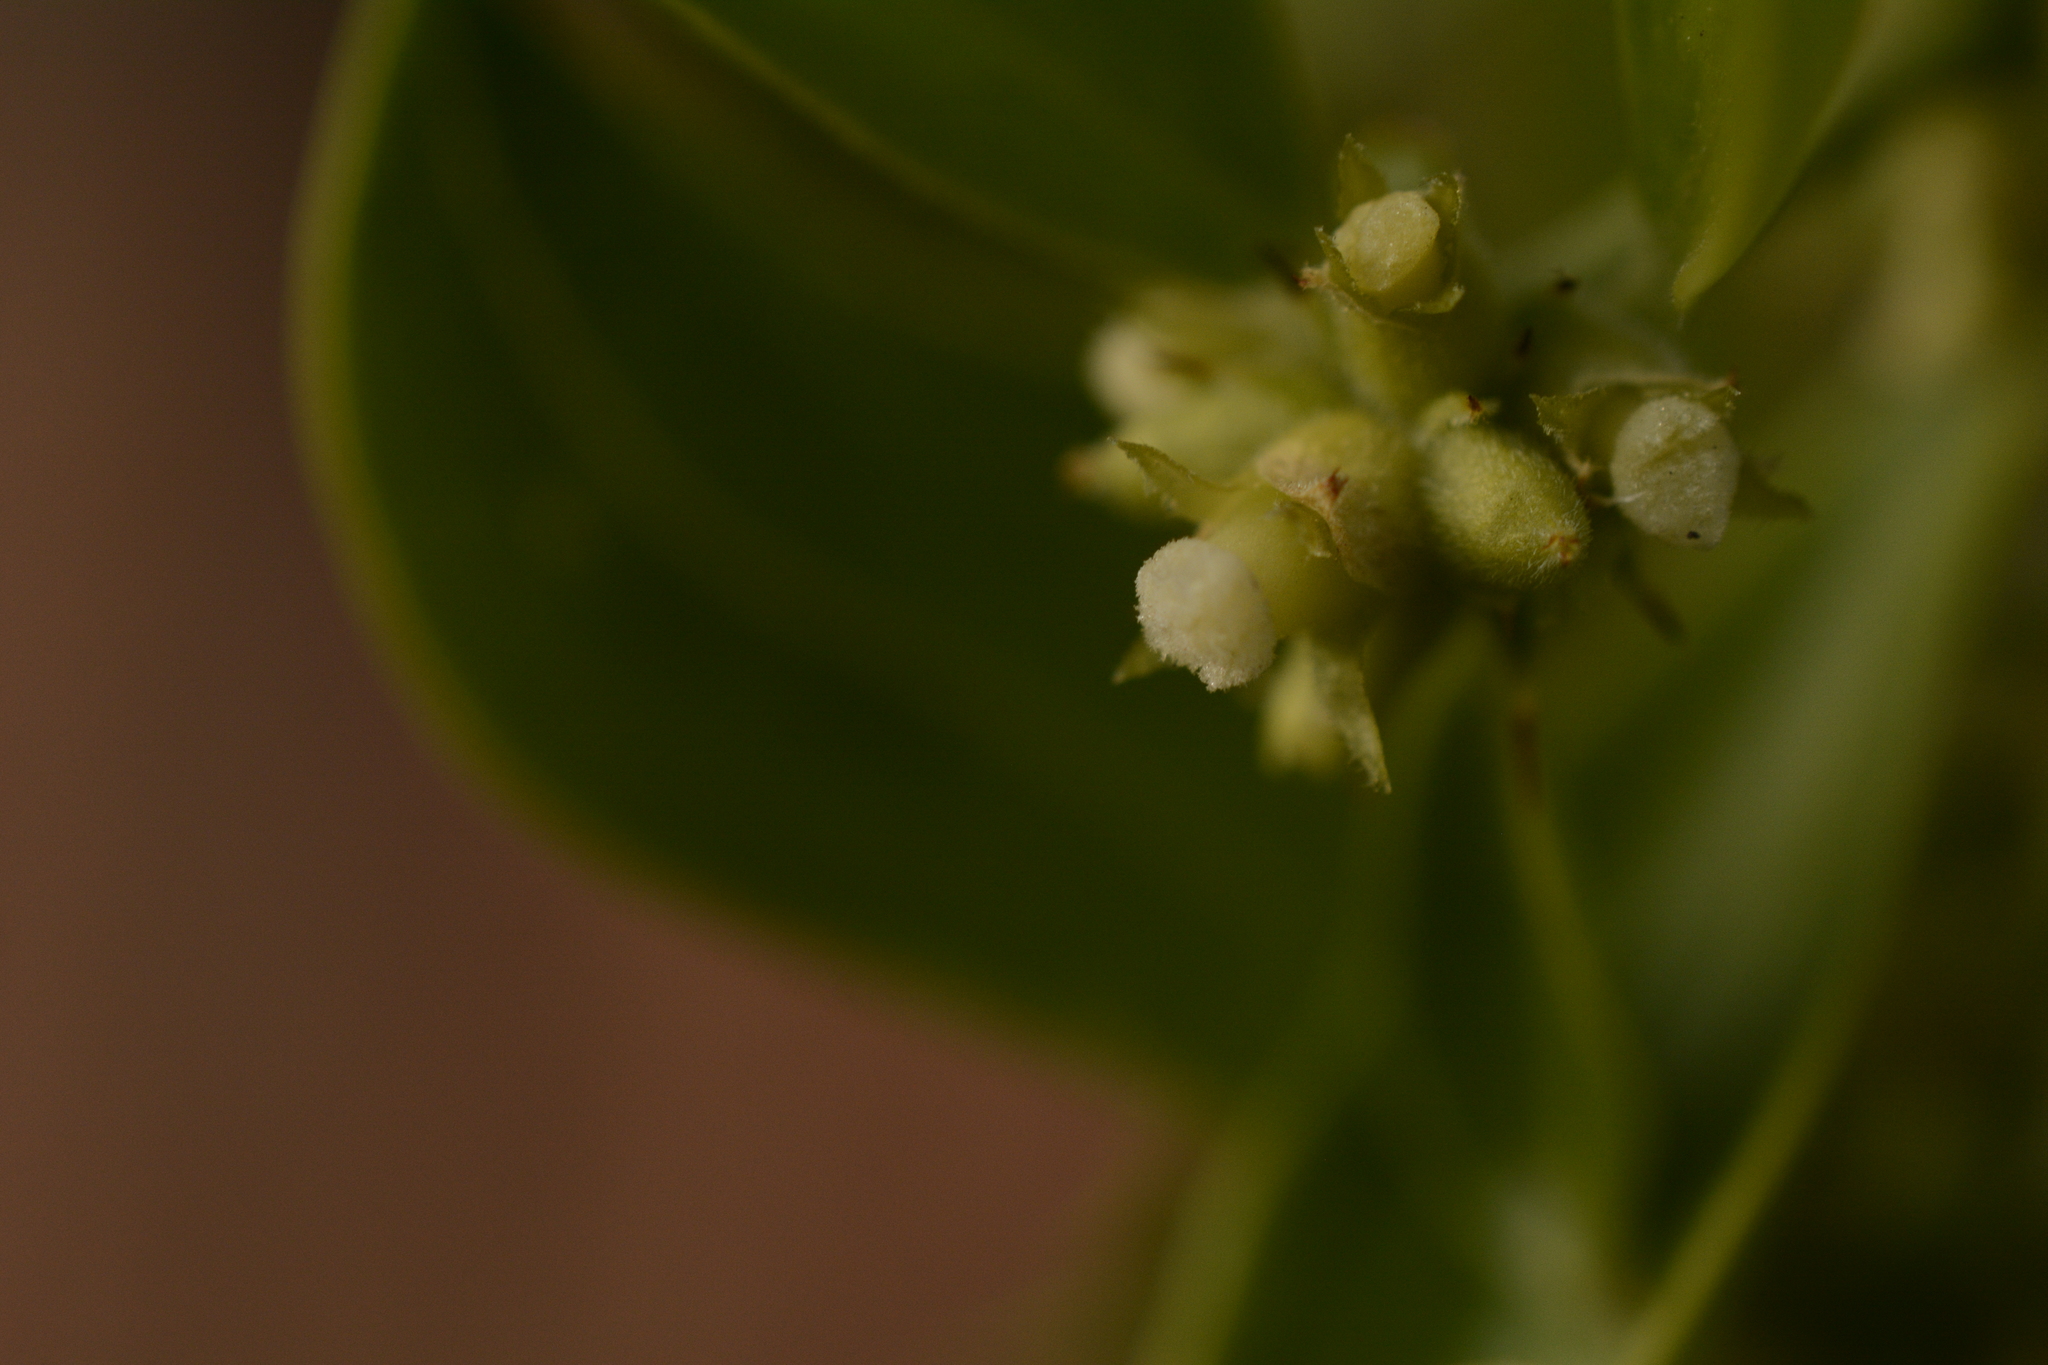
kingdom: Plantae
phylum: Tracheophyta
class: Magnoliopsida
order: Brassicales
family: Salvadoraceae
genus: Azima
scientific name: Azima tetracantha
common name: Needle bush
